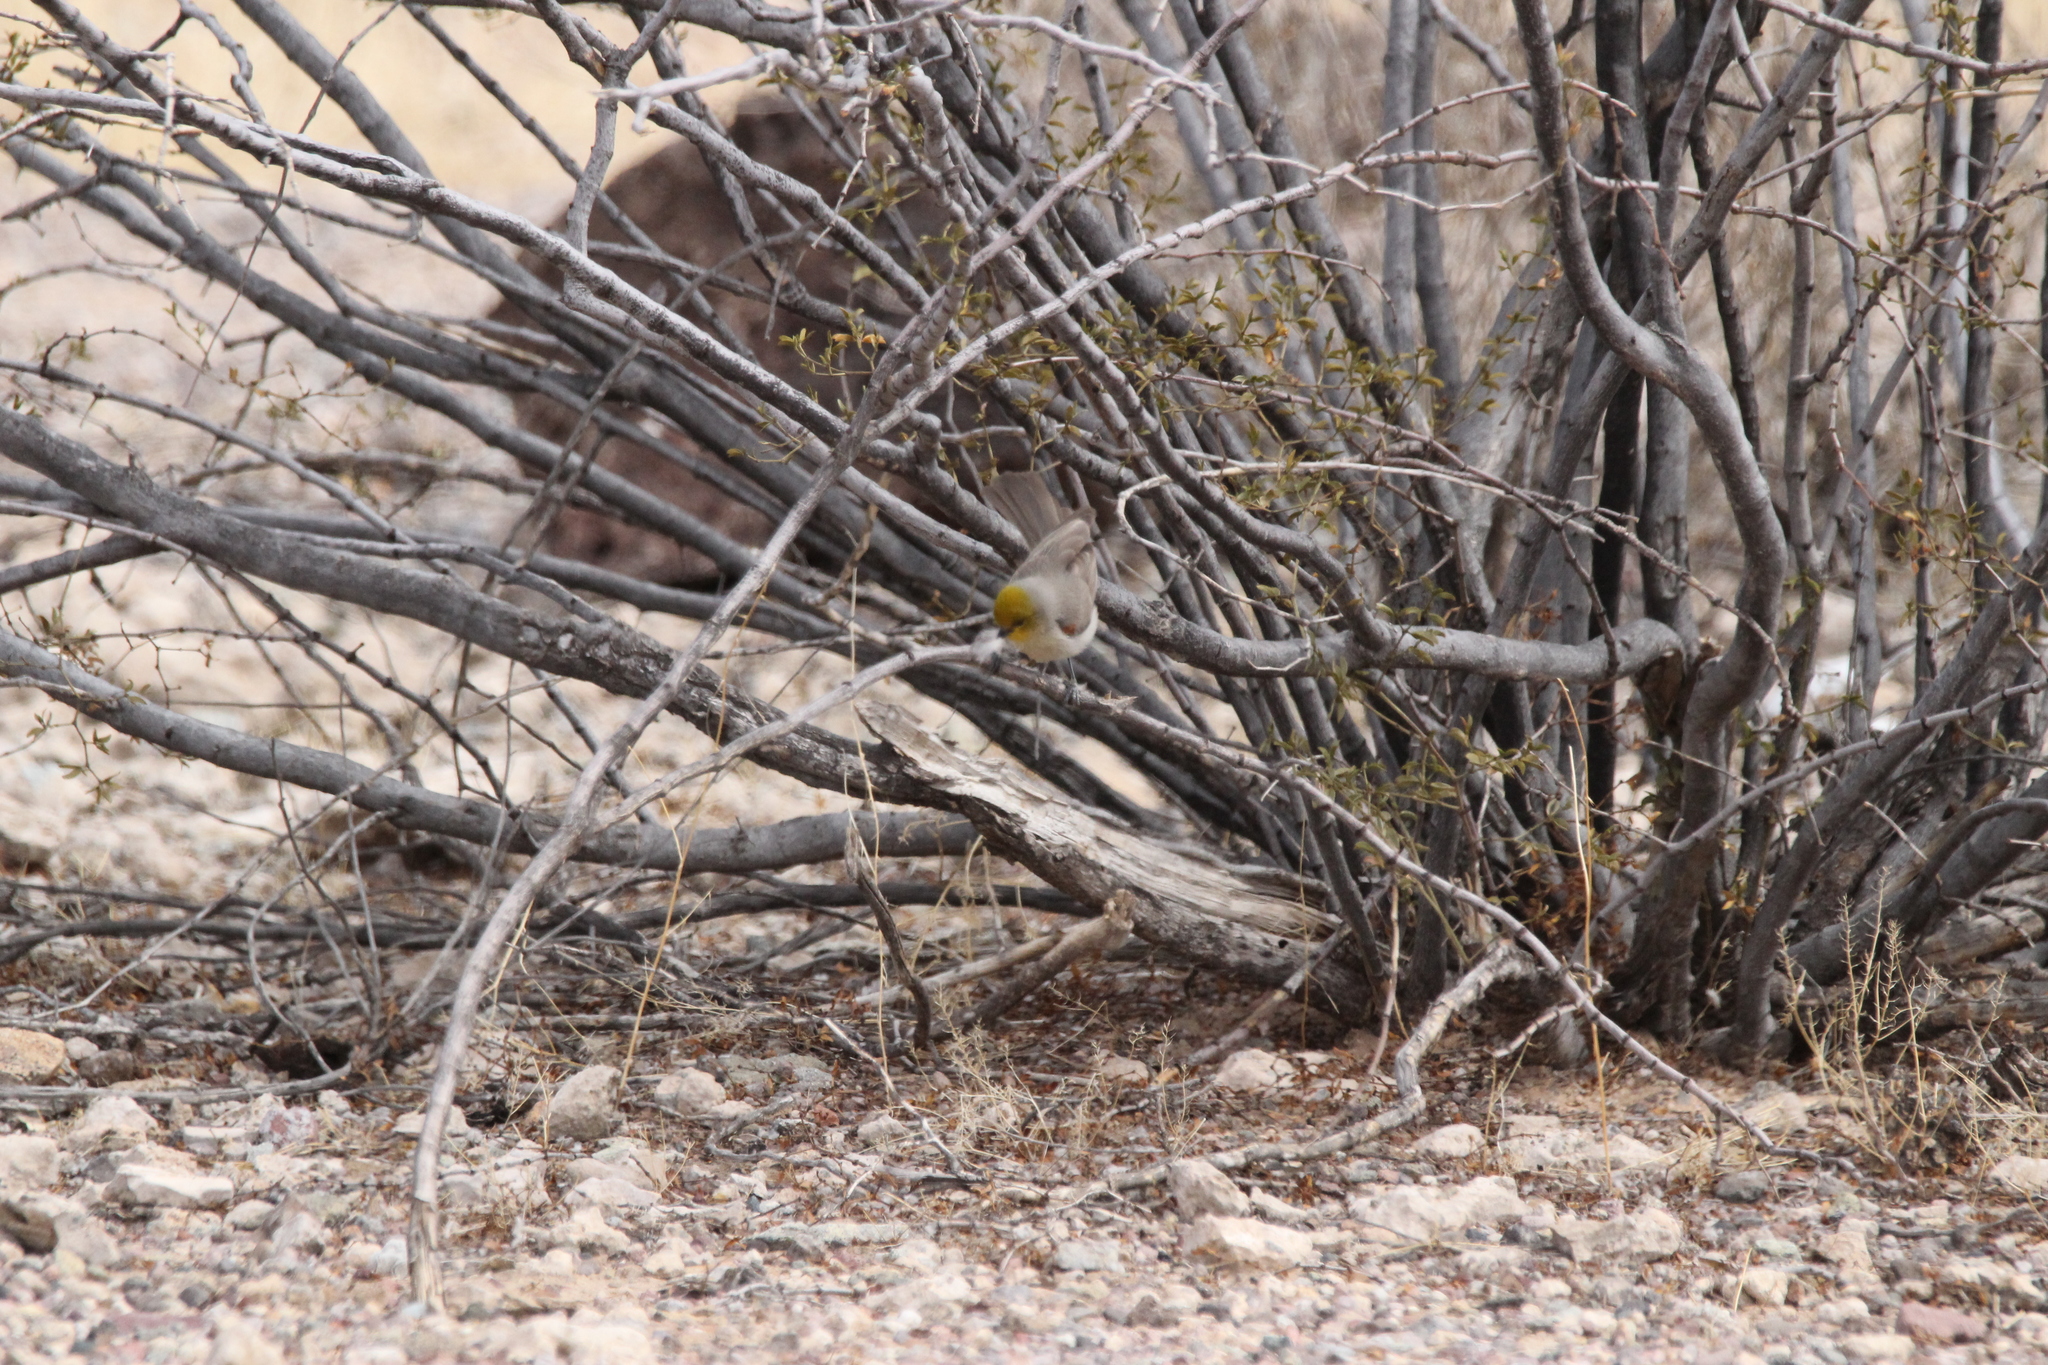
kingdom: Animalia
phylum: Chordata
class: Aves
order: Passeriformes
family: Remizidae
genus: Auriparus
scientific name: Auriparus flaviceps
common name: Verdin
